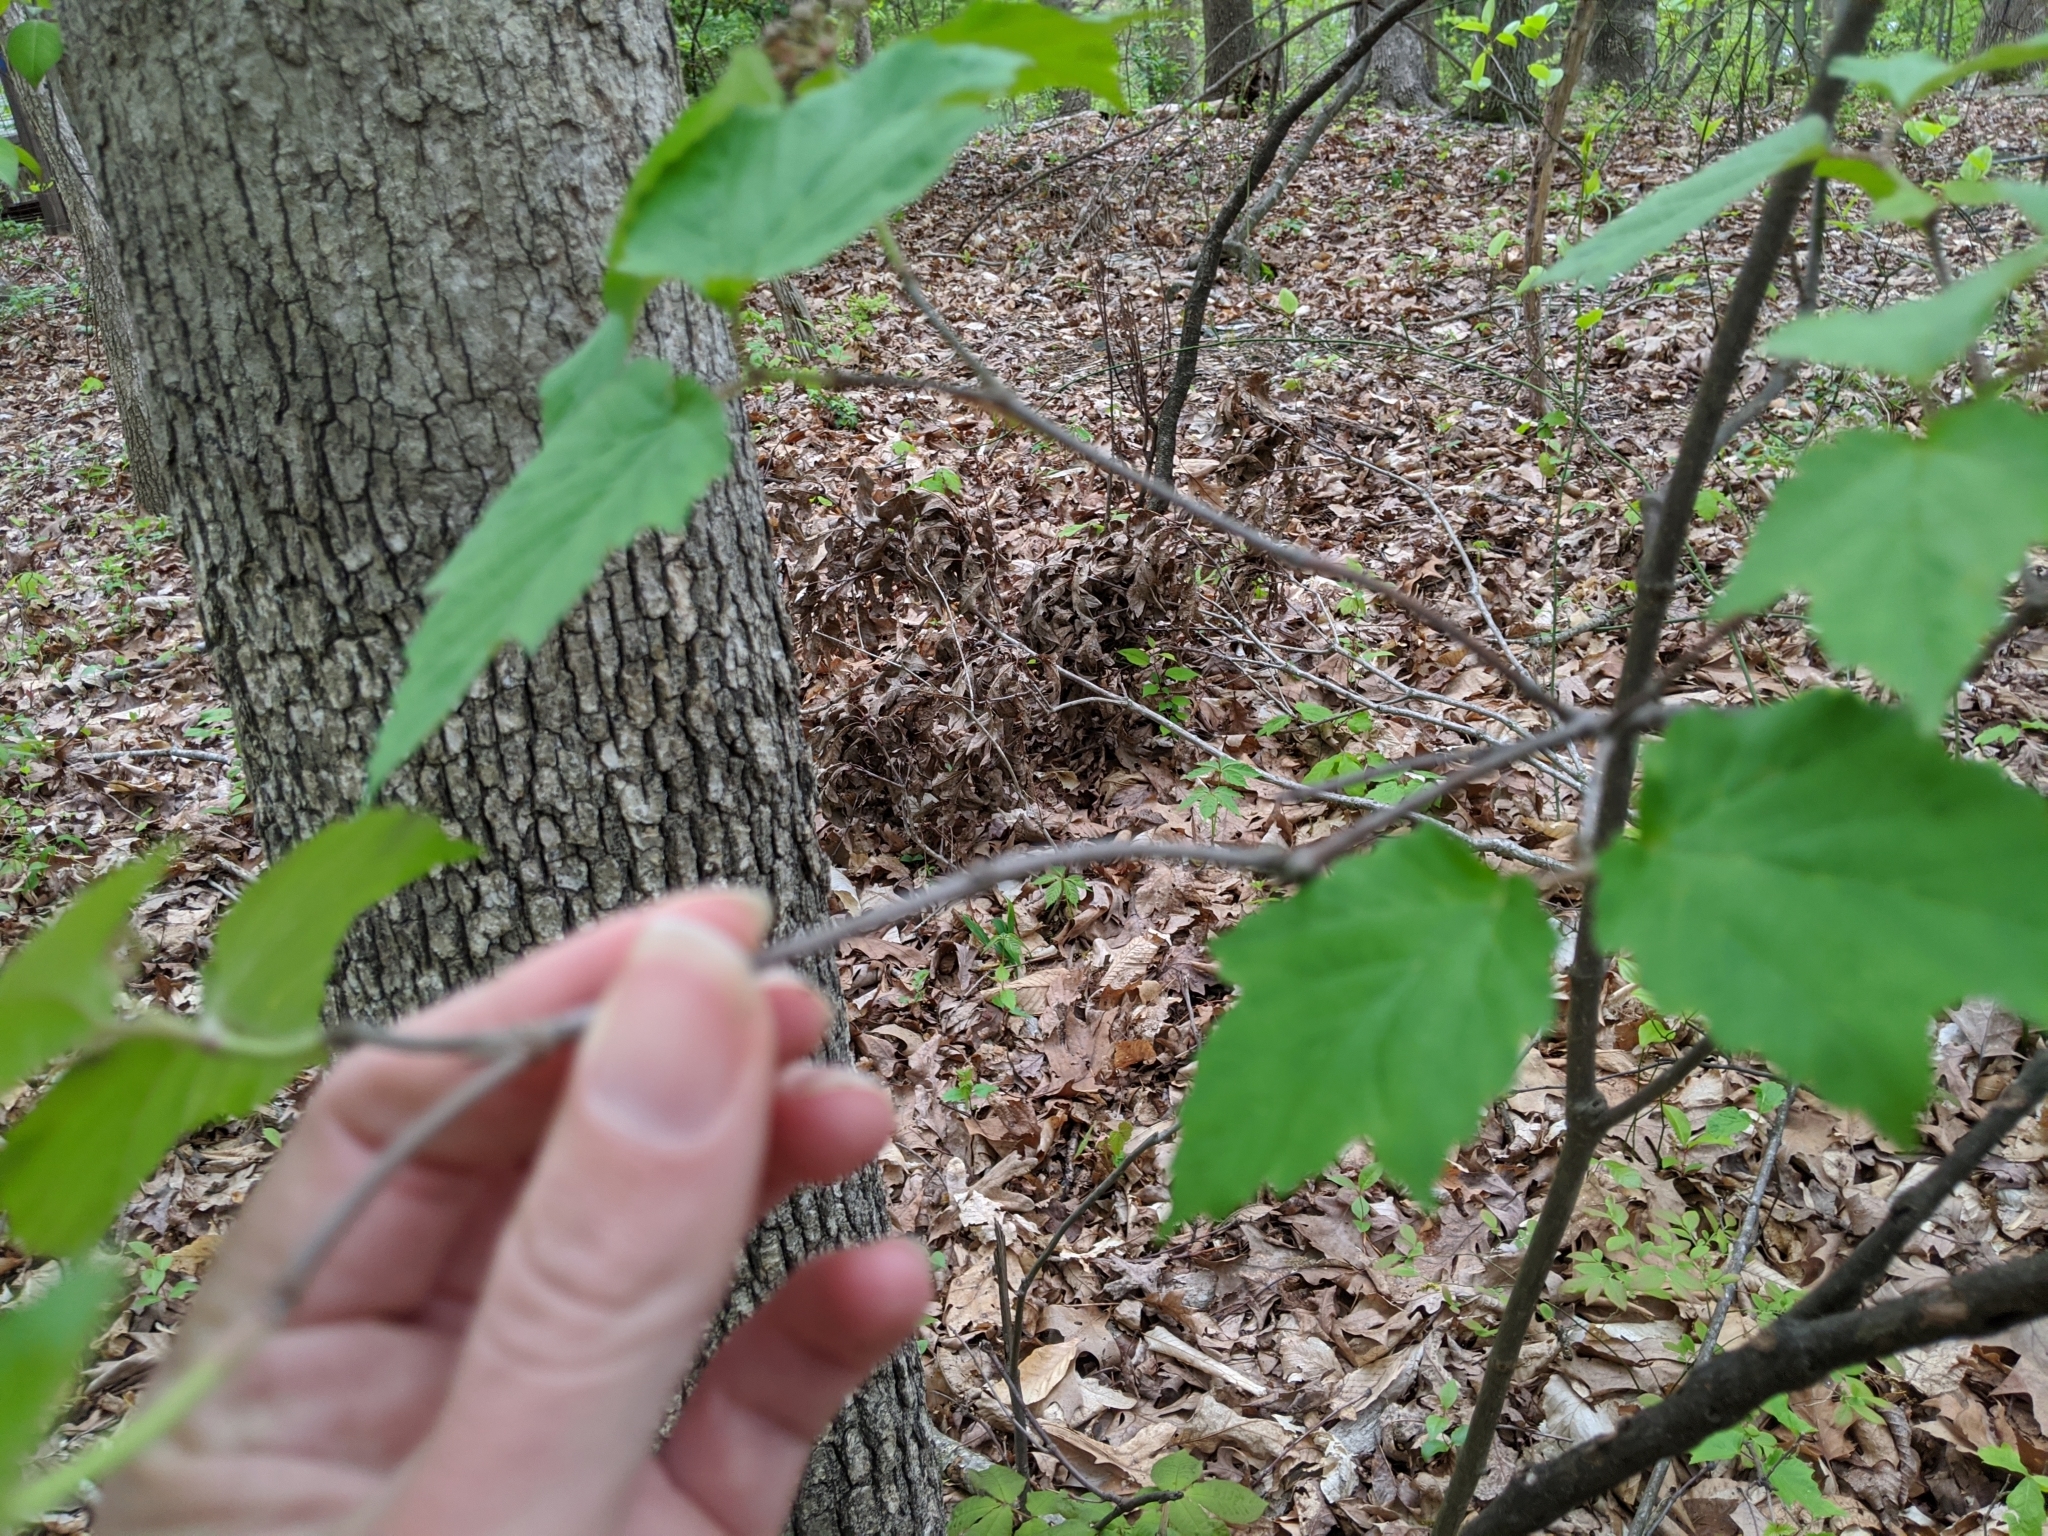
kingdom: Plantae
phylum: Tracheophyta
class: Magnoliopsida
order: Dipsacales
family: Viburnaceae
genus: Viburnum
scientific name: Viburnum acerifolium
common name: Dockmackie
